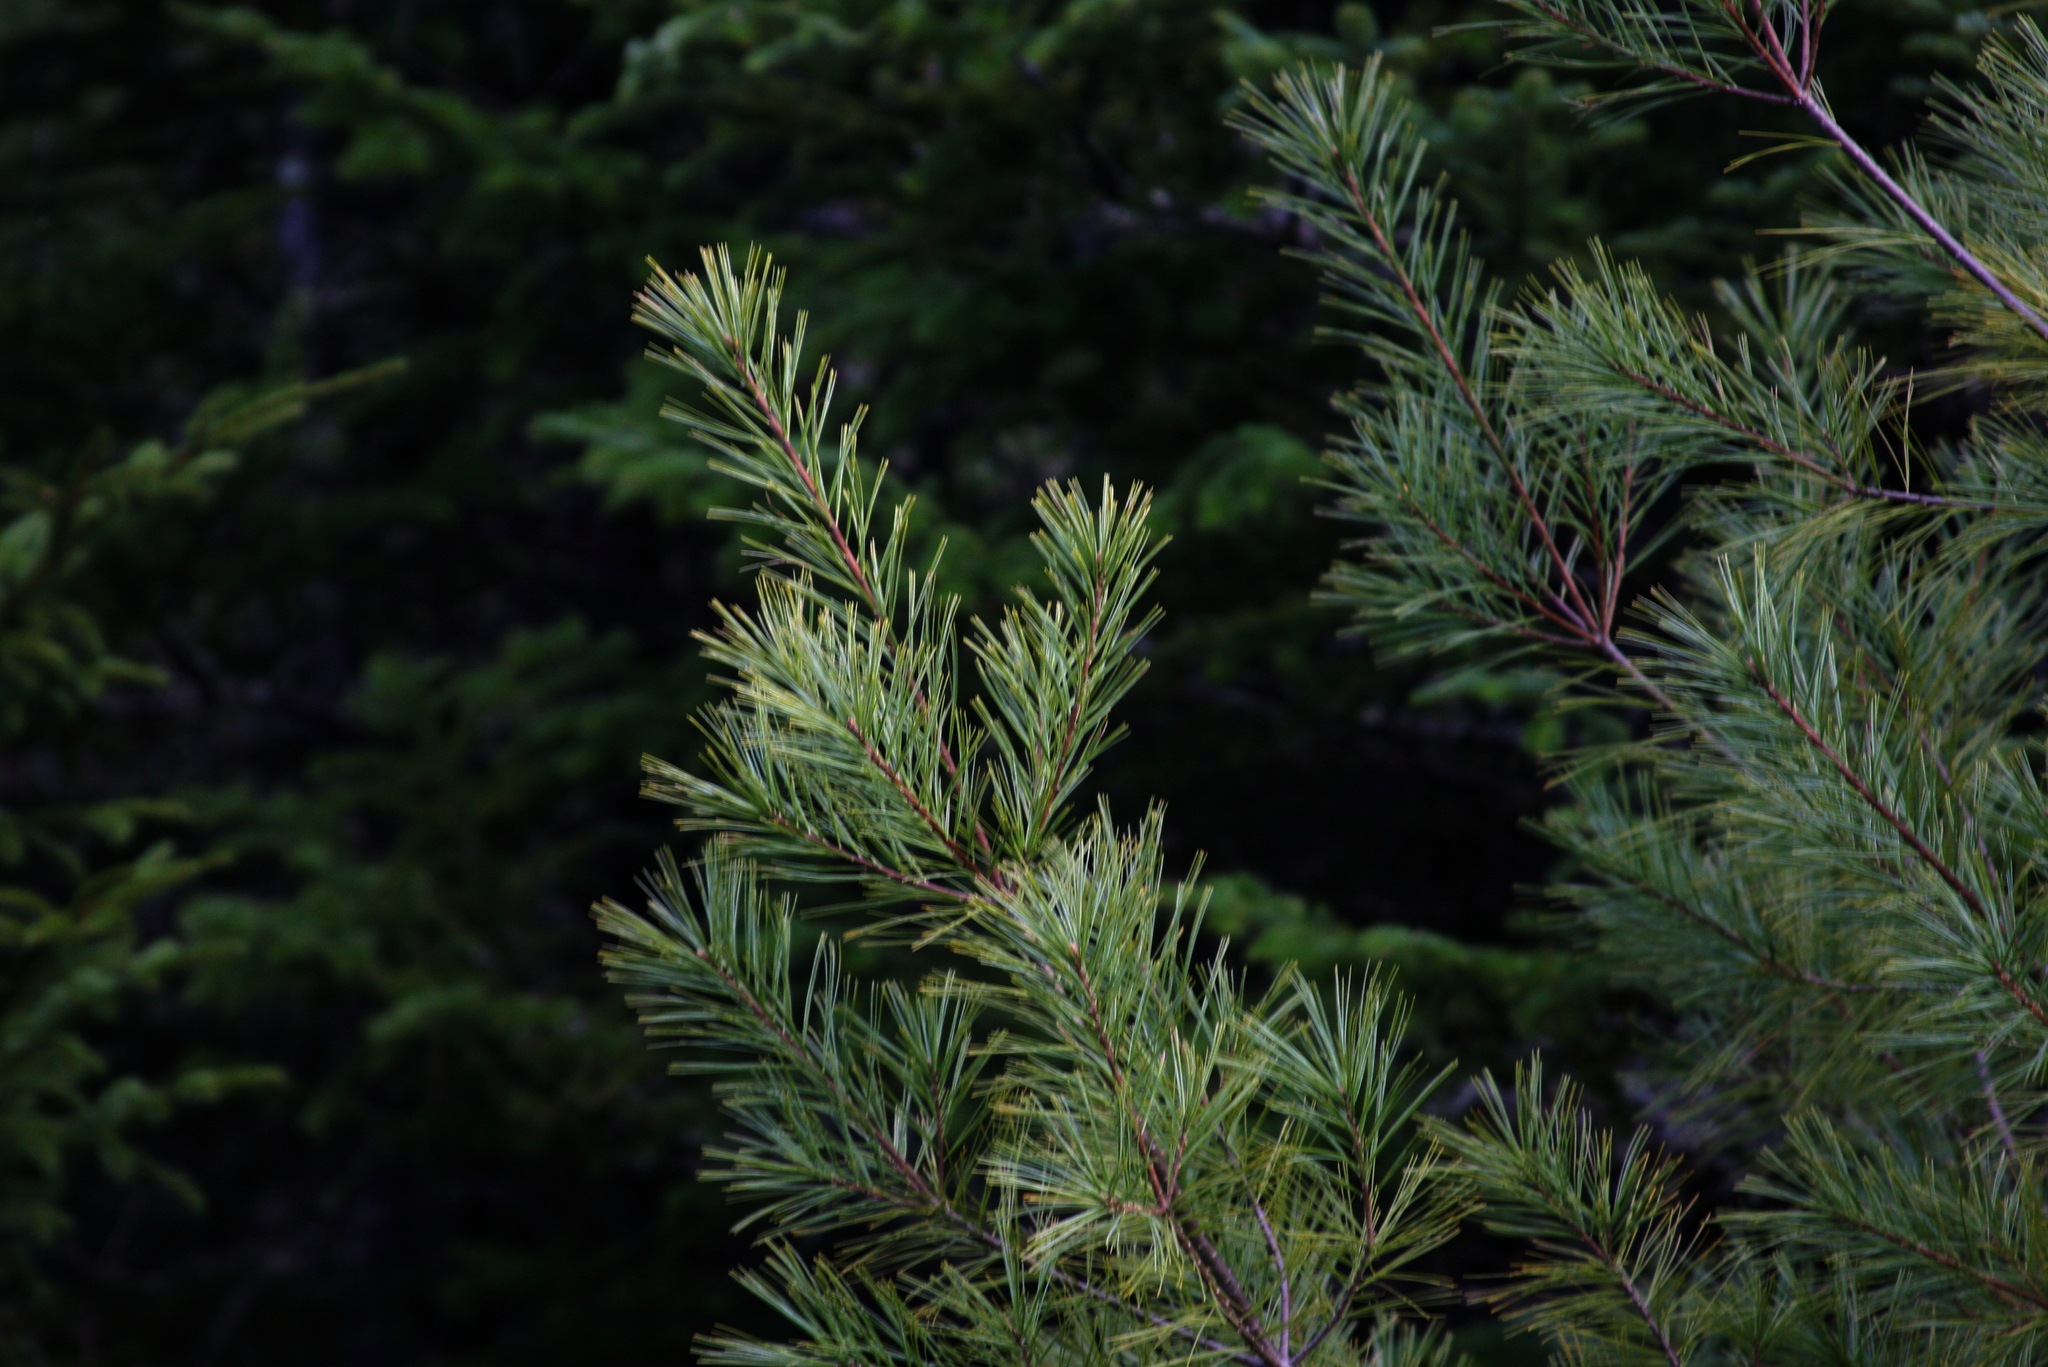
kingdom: Plantae
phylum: Tracheophyta
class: Pinopsida
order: Pinales
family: Pinaceae
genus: Pinus
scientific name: Pinus strobus
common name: Weymouth pine
